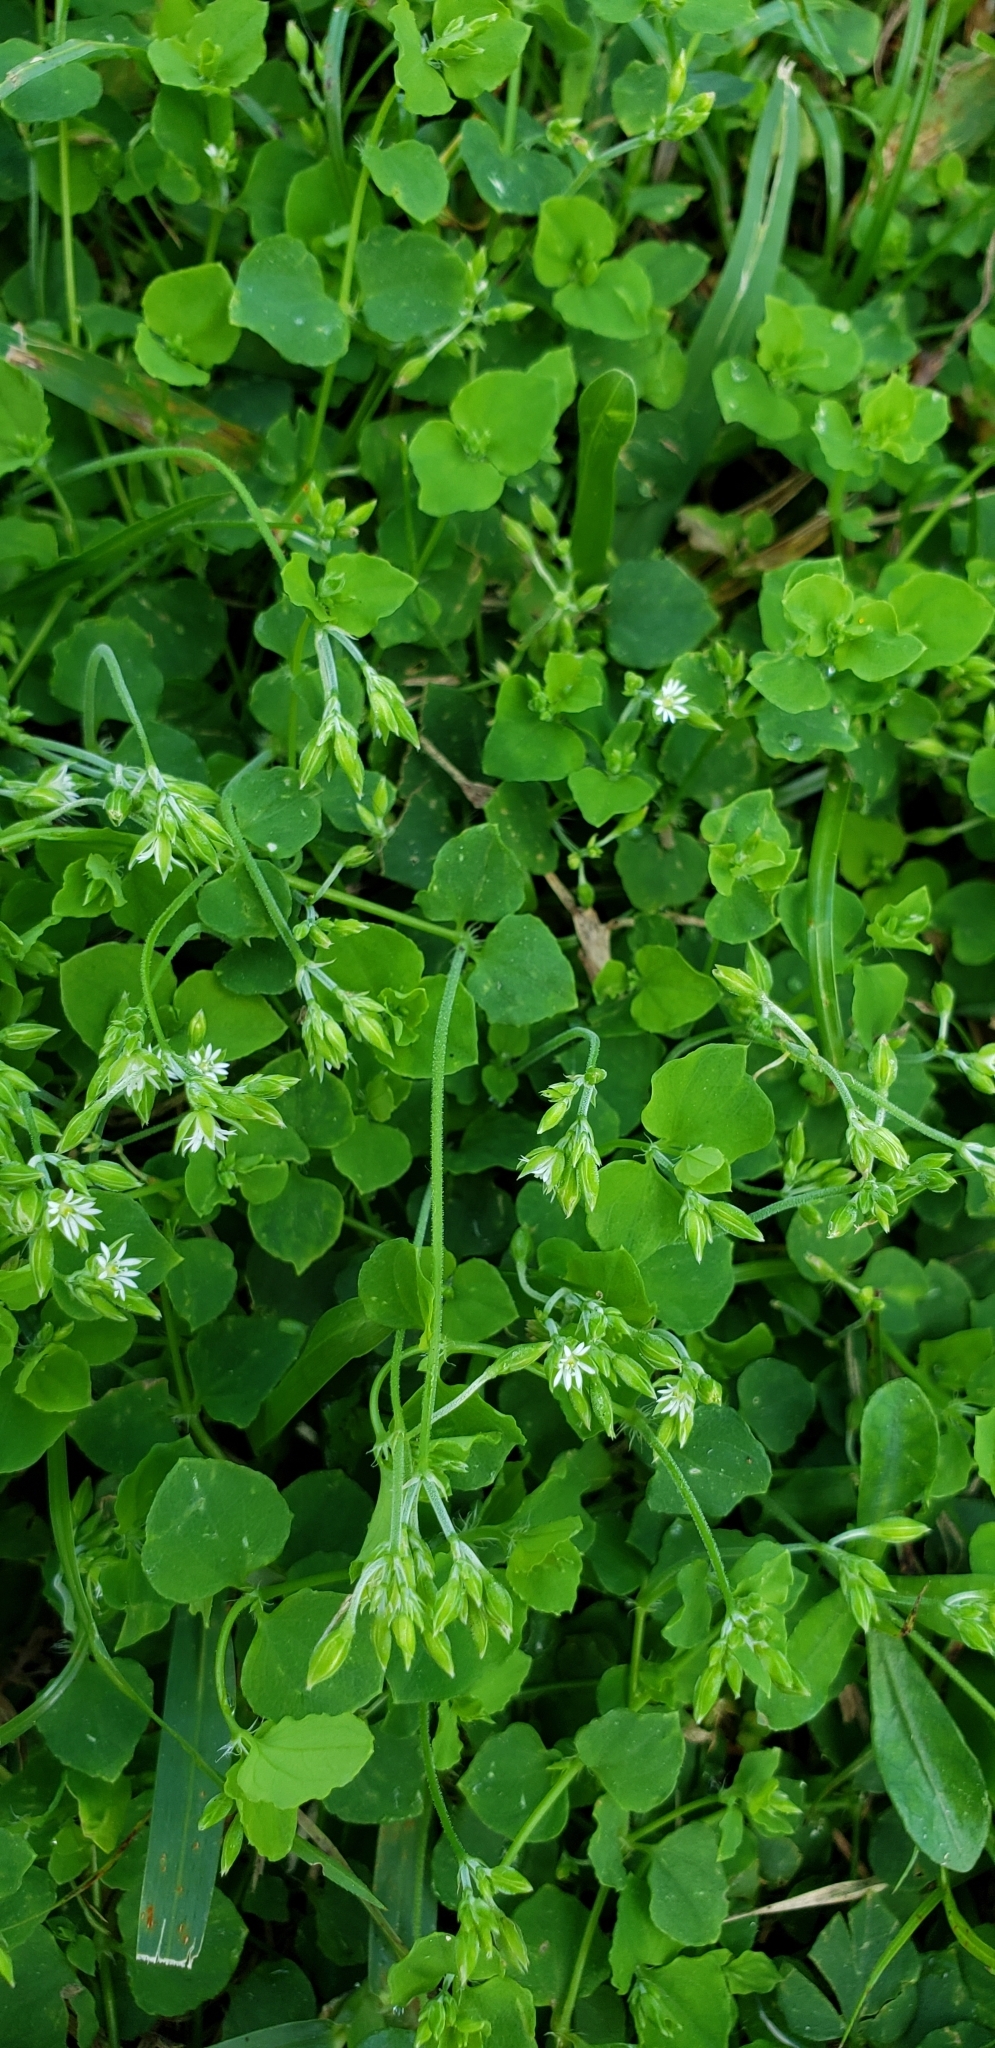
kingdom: Plantae
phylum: Tracheophyta
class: Magnoliopsida
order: Caryophyllales
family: Caryophyllaceae
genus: Drymaria
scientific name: Drymaria cordata
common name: Whitesnow
